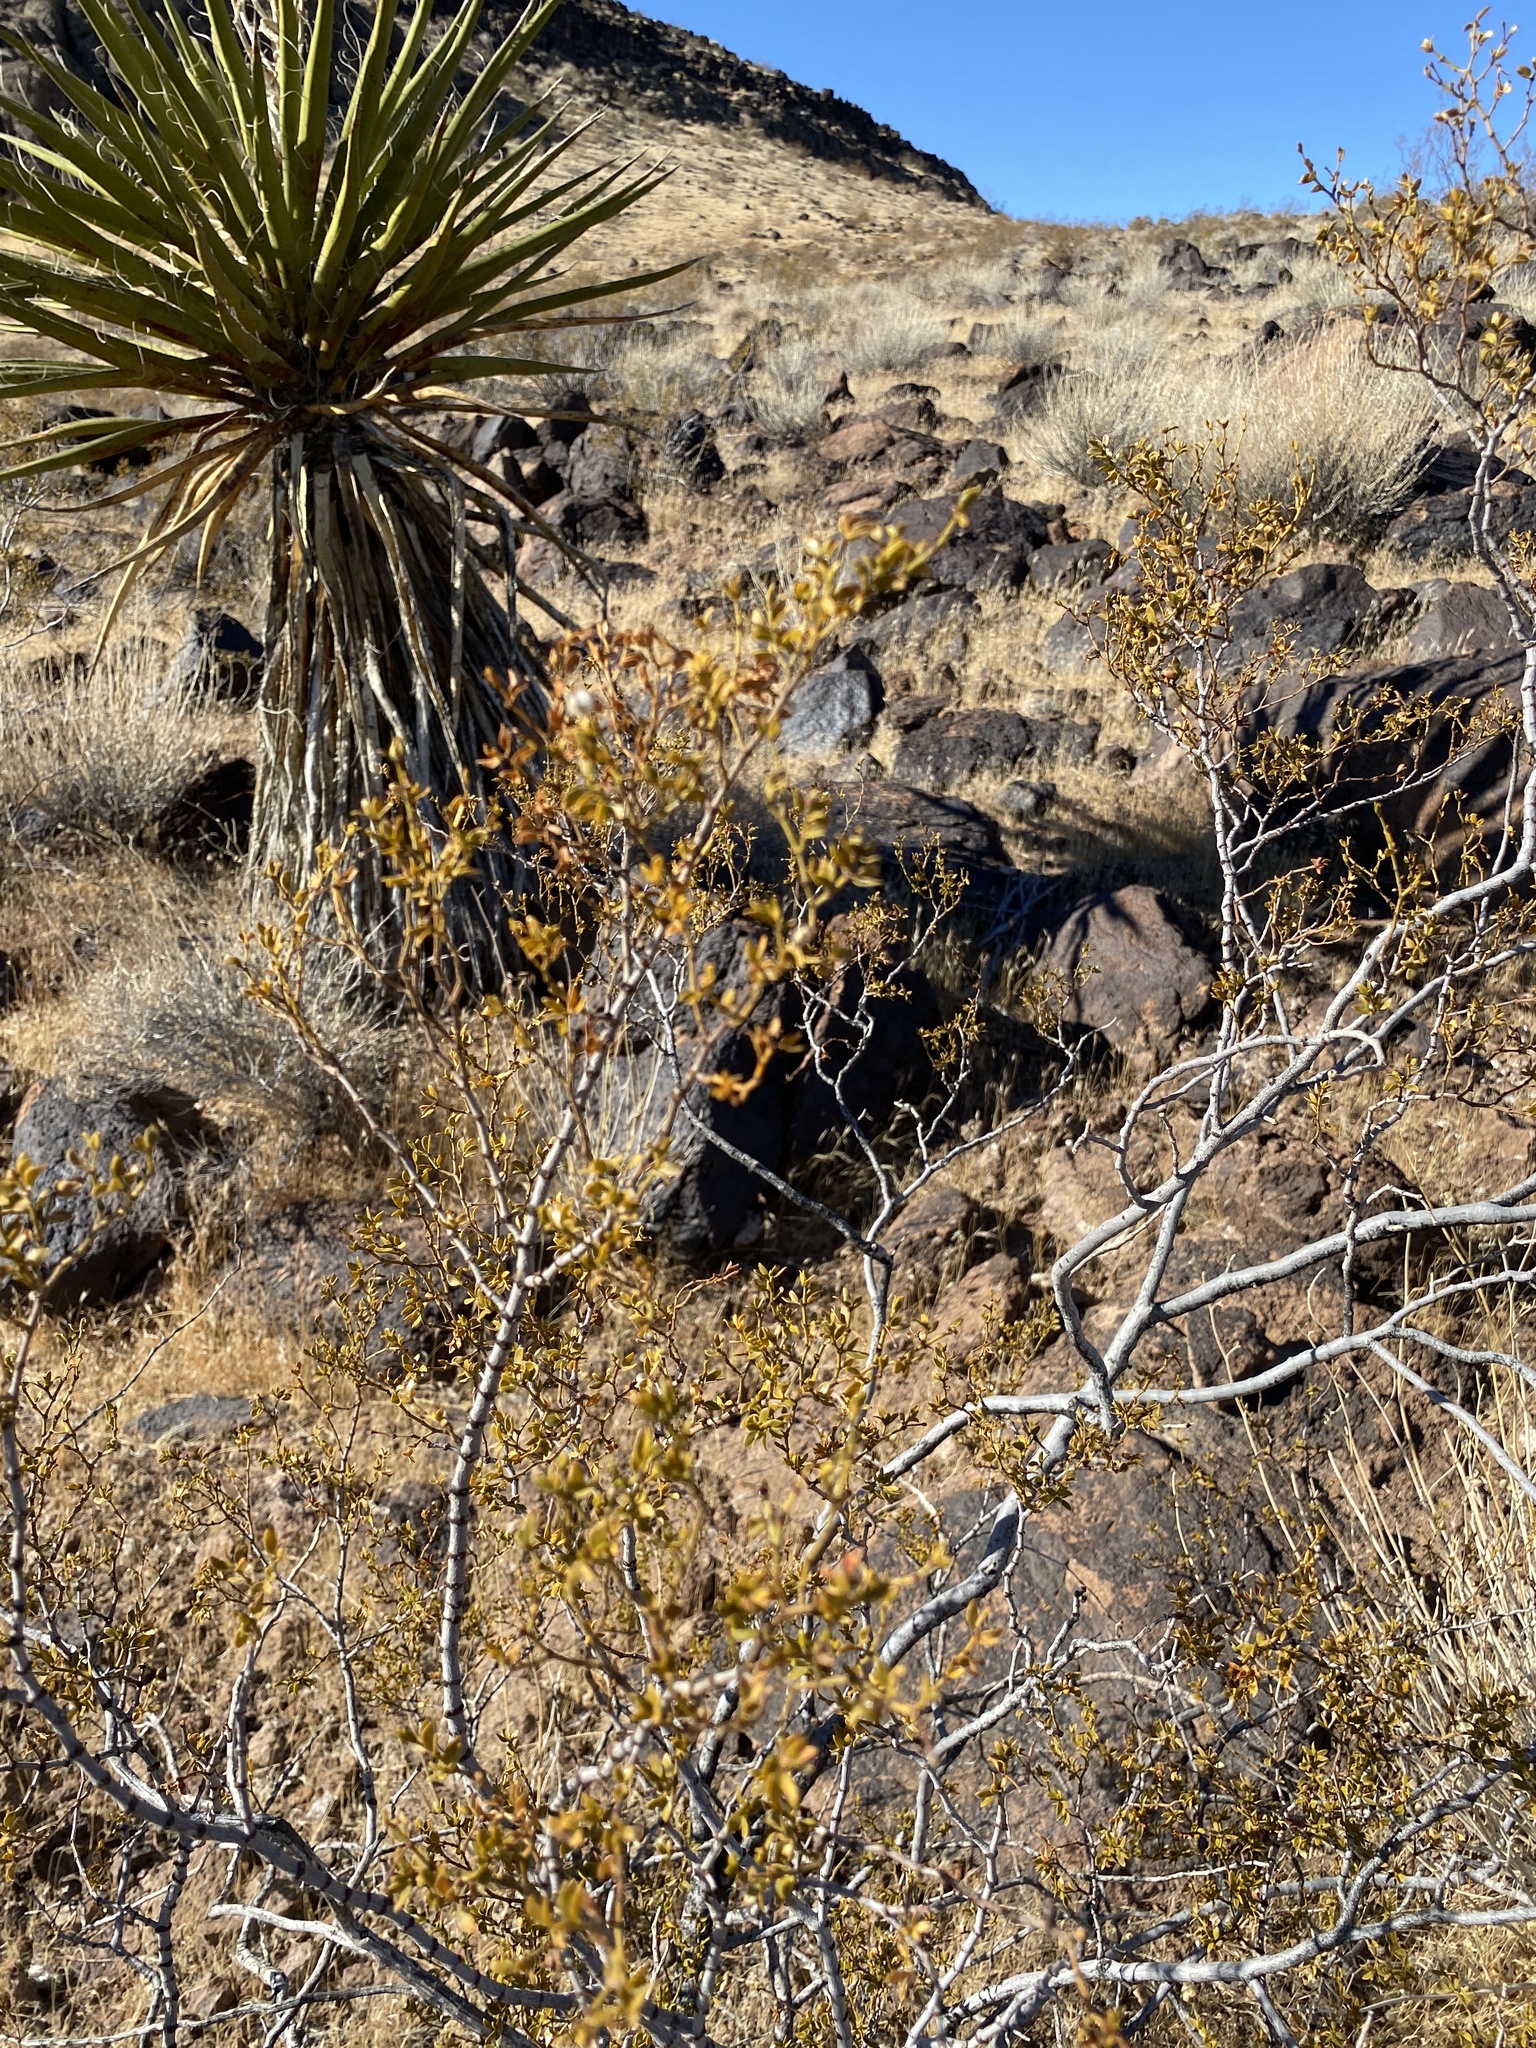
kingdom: Plantae
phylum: Tracheophyta
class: Magnoliopsida
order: Zygophyllales
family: Zygophyllaceae
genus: Larrea
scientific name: Larrea tridentata
